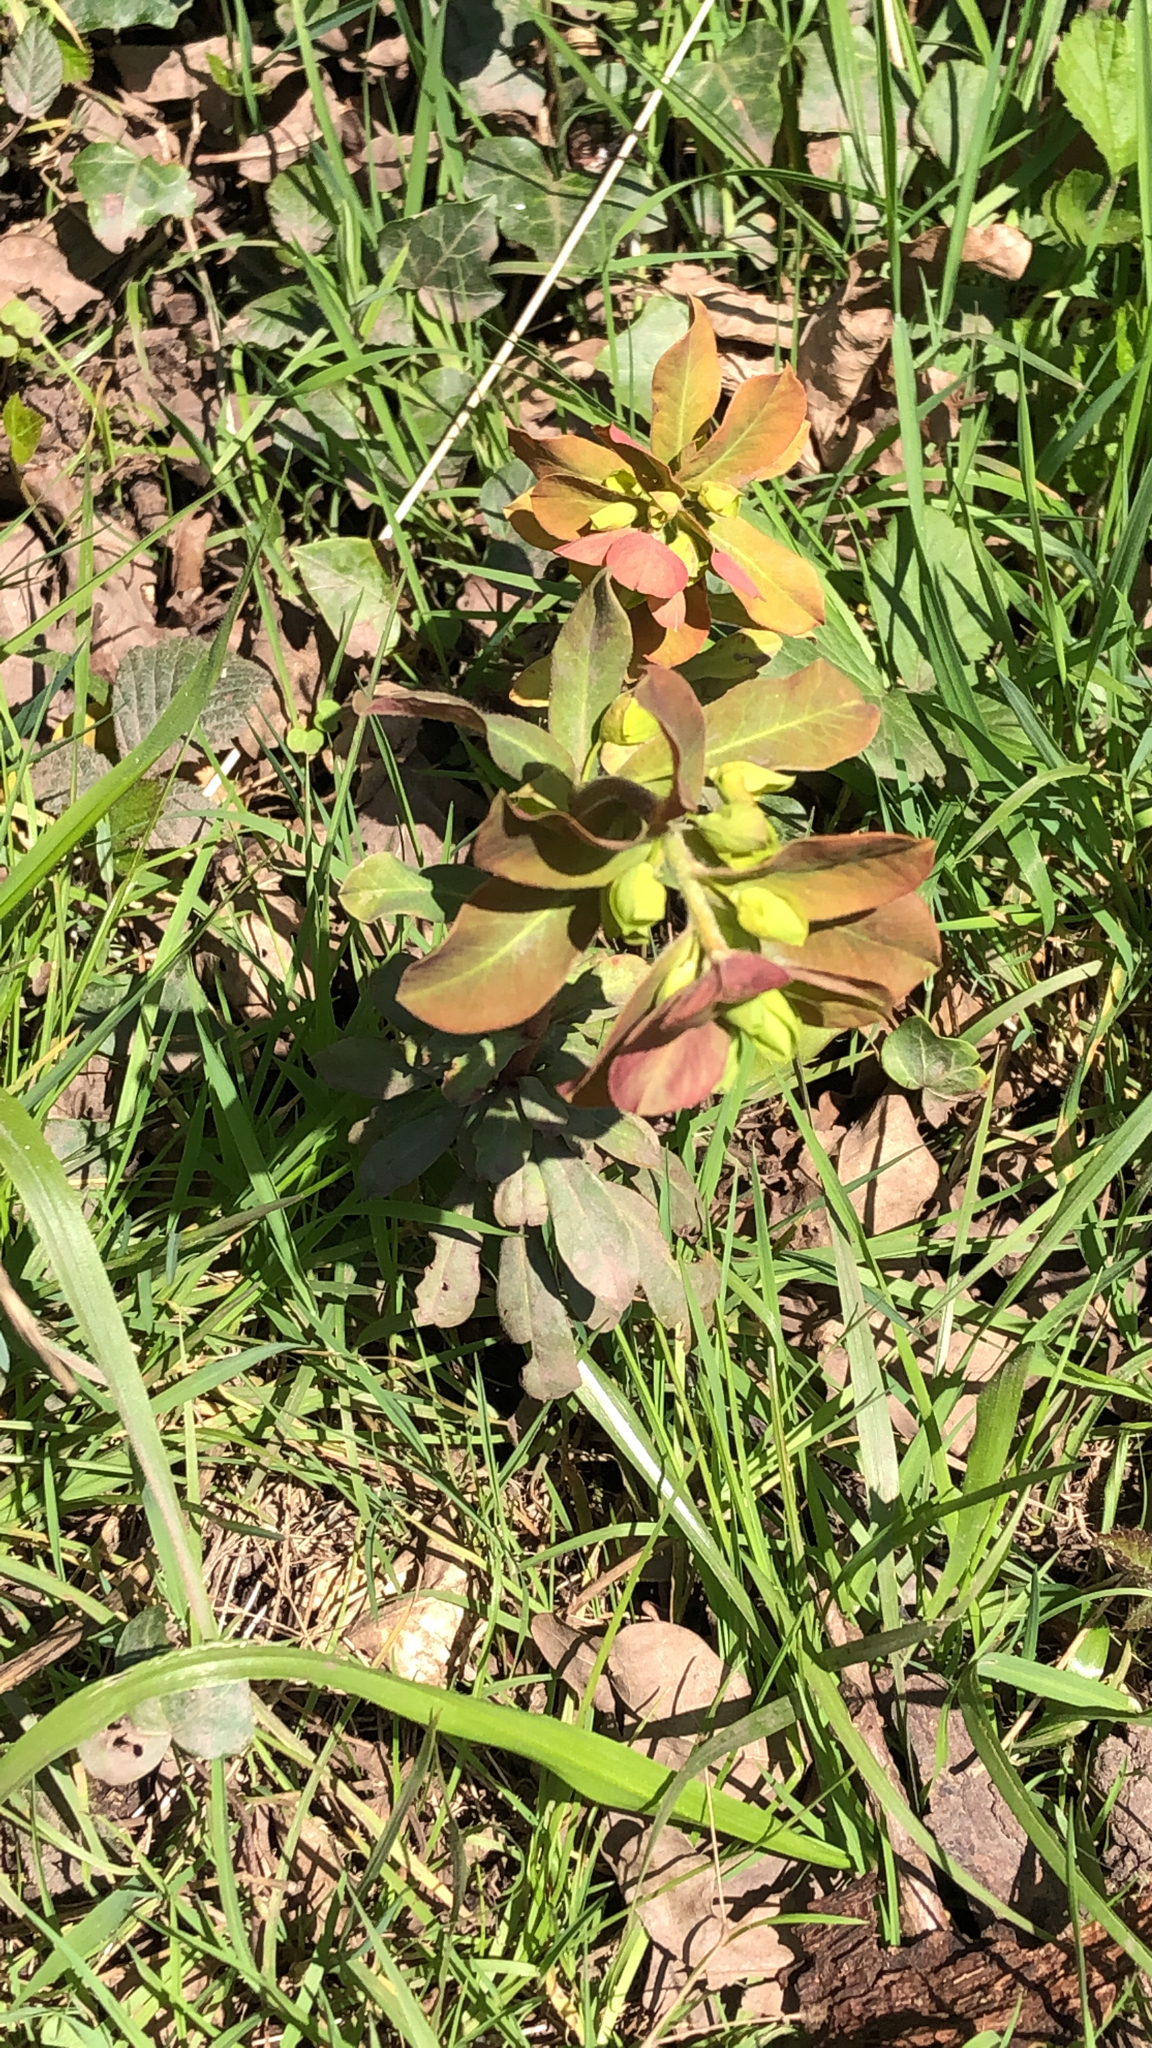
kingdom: Plantae
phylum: Tracheophyta
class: Magnoliopsida
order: Malpighiales
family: Euphorbiaceae
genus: Euphorbia
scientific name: Euphorbia amygdaloides
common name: Wood spurge
